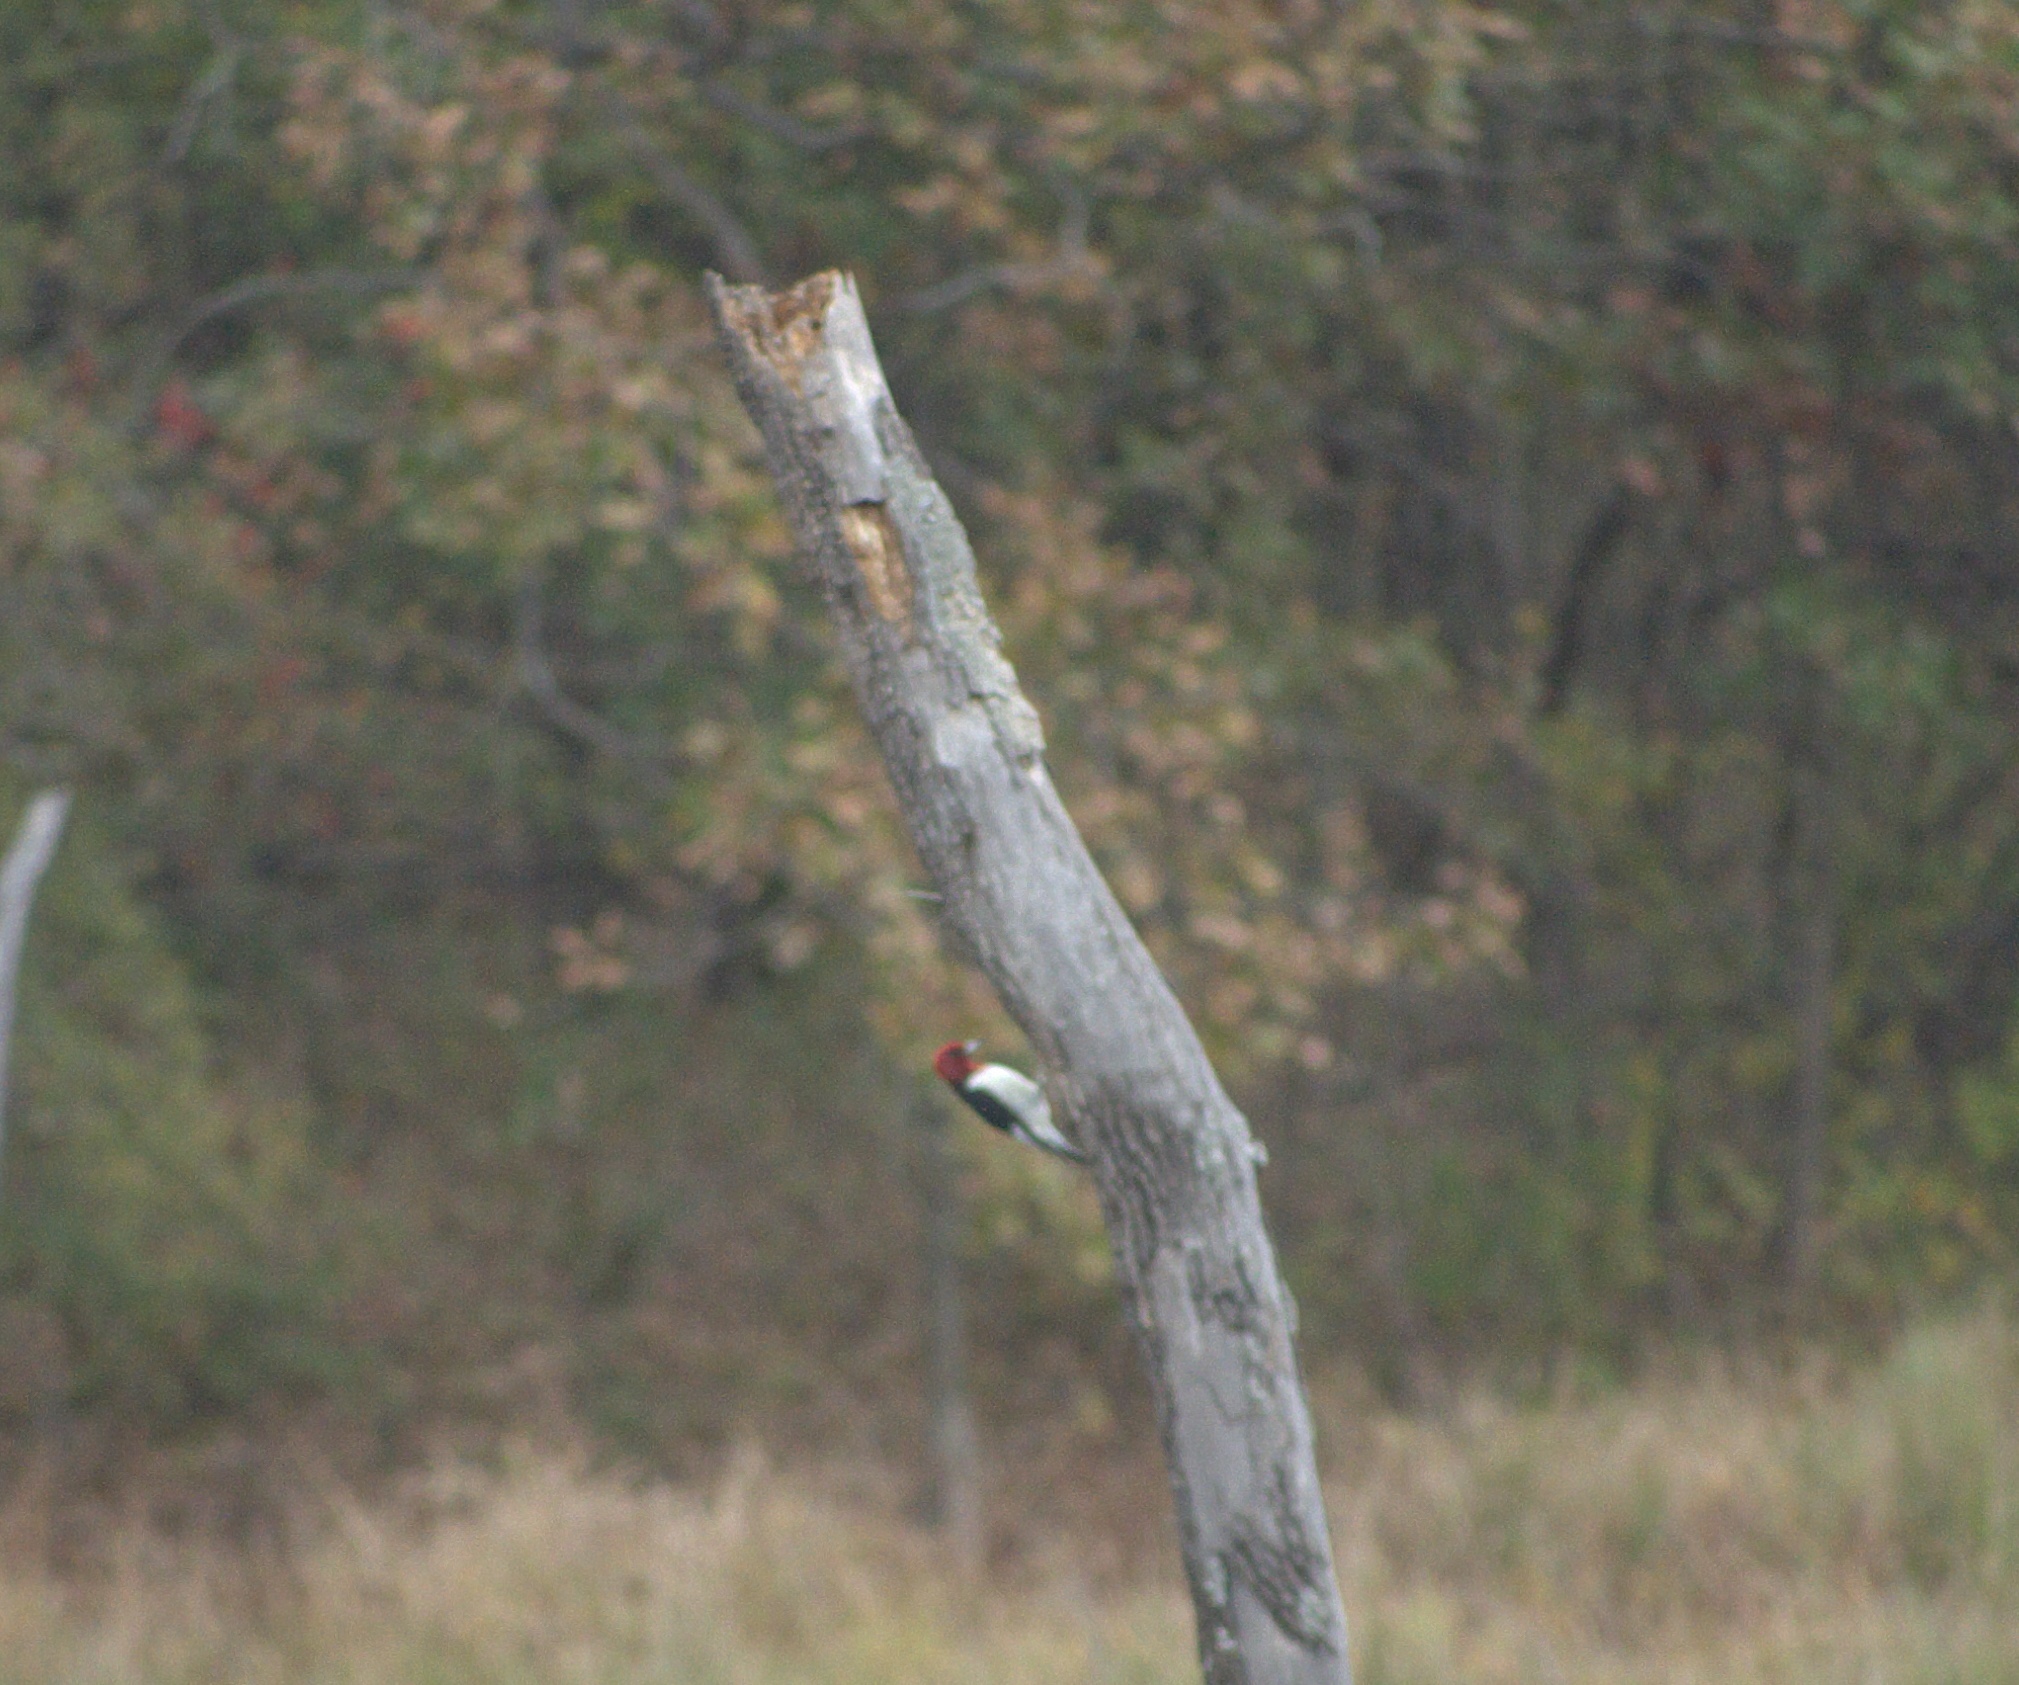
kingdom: Animalia
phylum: Chordata
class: Aves
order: Piciformes
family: Picidae
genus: Melanerpes
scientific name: Melanerpes erythrocephalus
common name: Red-headed woodpecker
